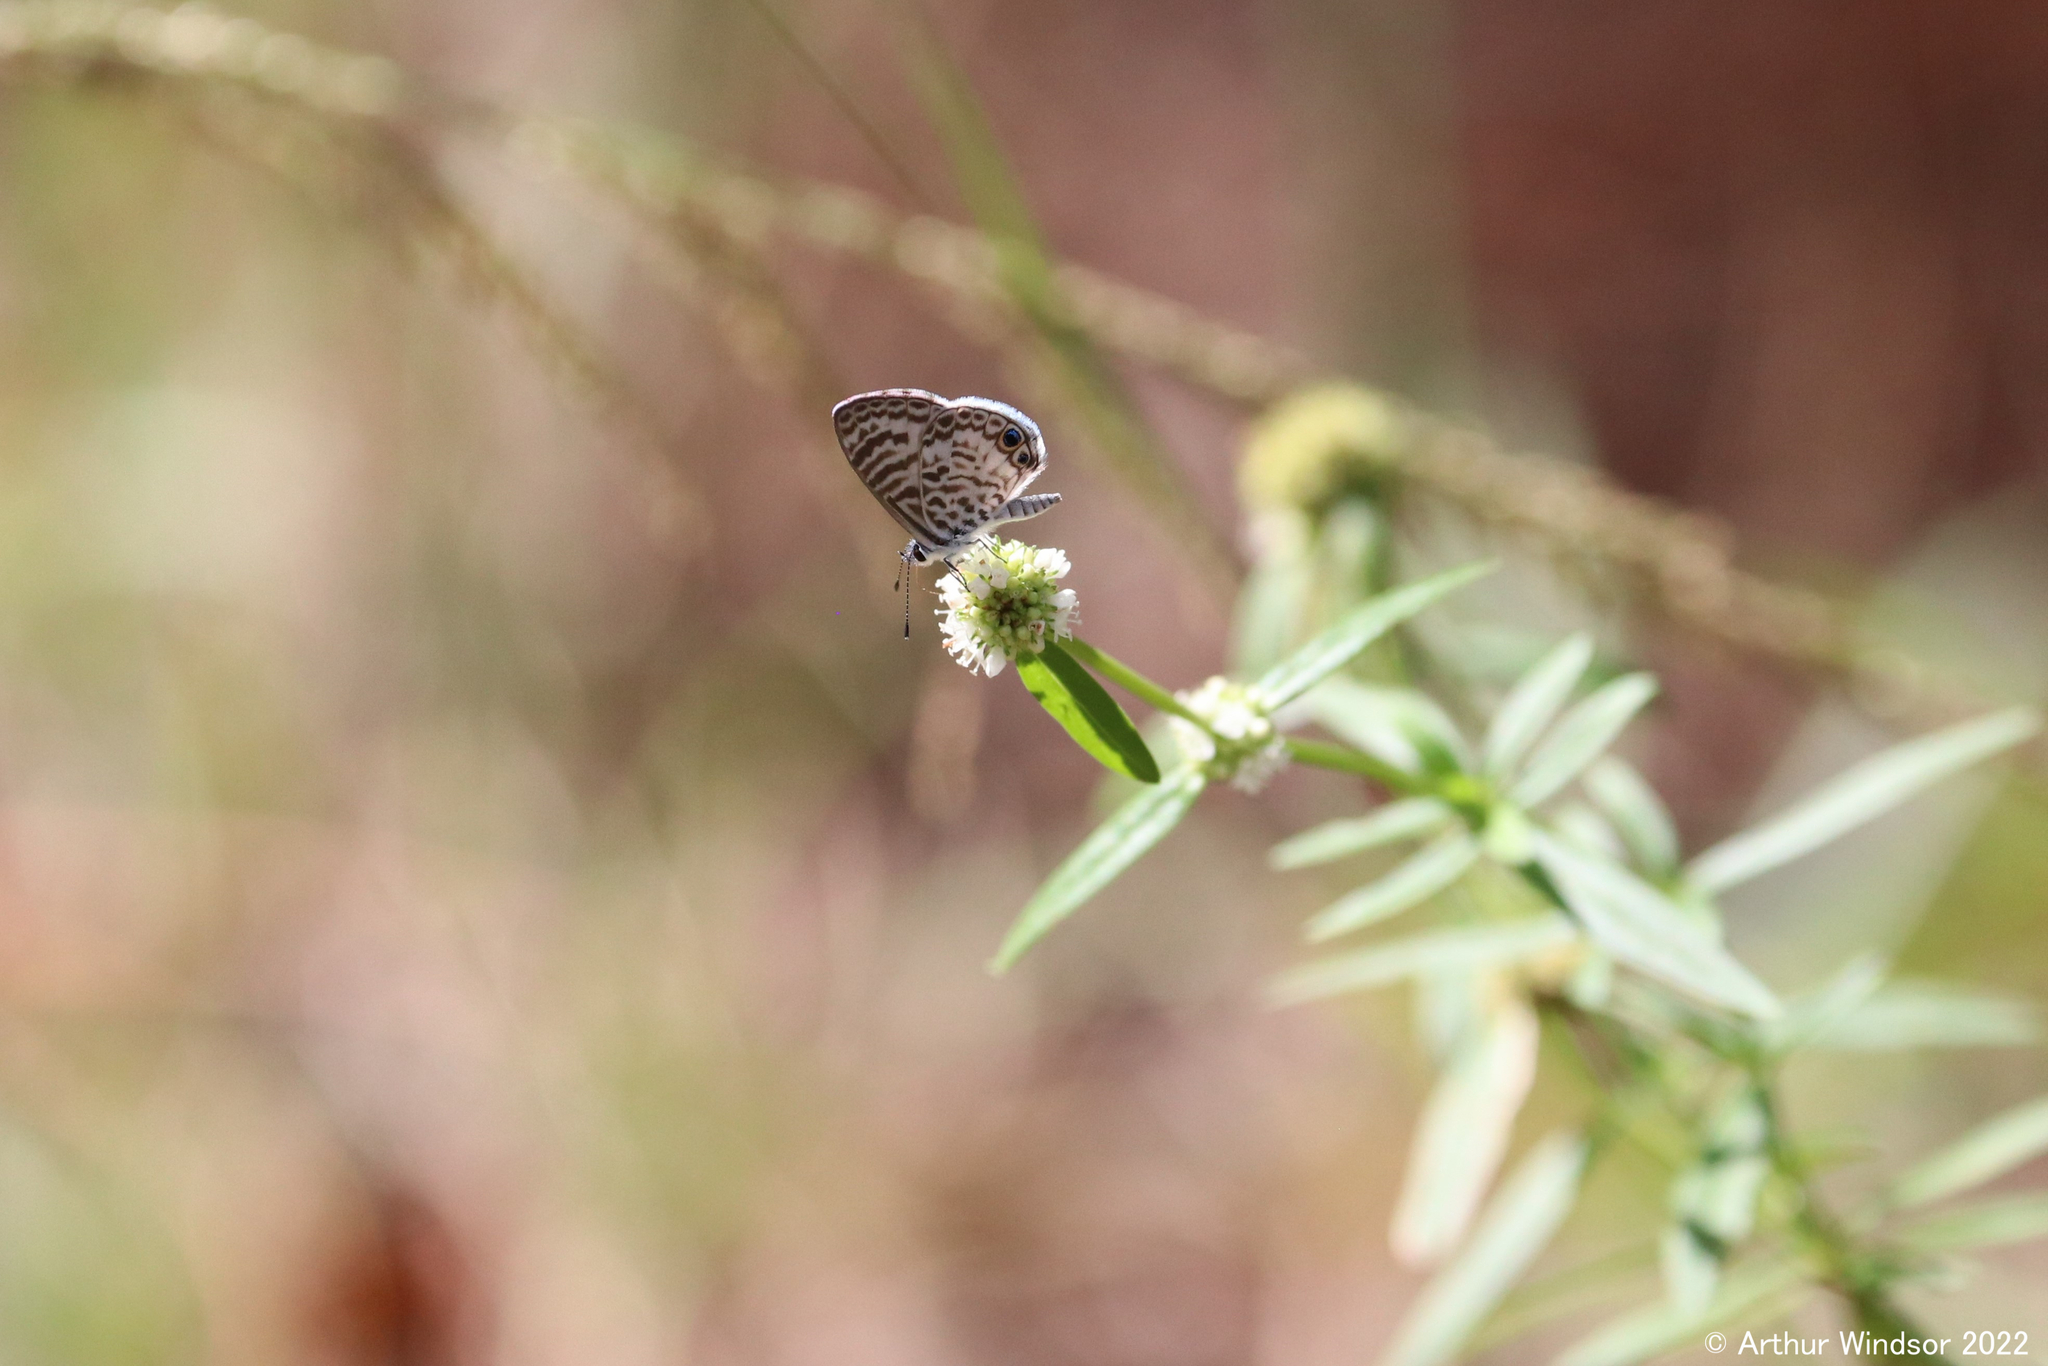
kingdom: Animalia
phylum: Arthropoda
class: Insecta
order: Lepidoptera
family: Lycaenidae
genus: Leptotes
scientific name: Leptotes cassius
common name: Cassius blue
